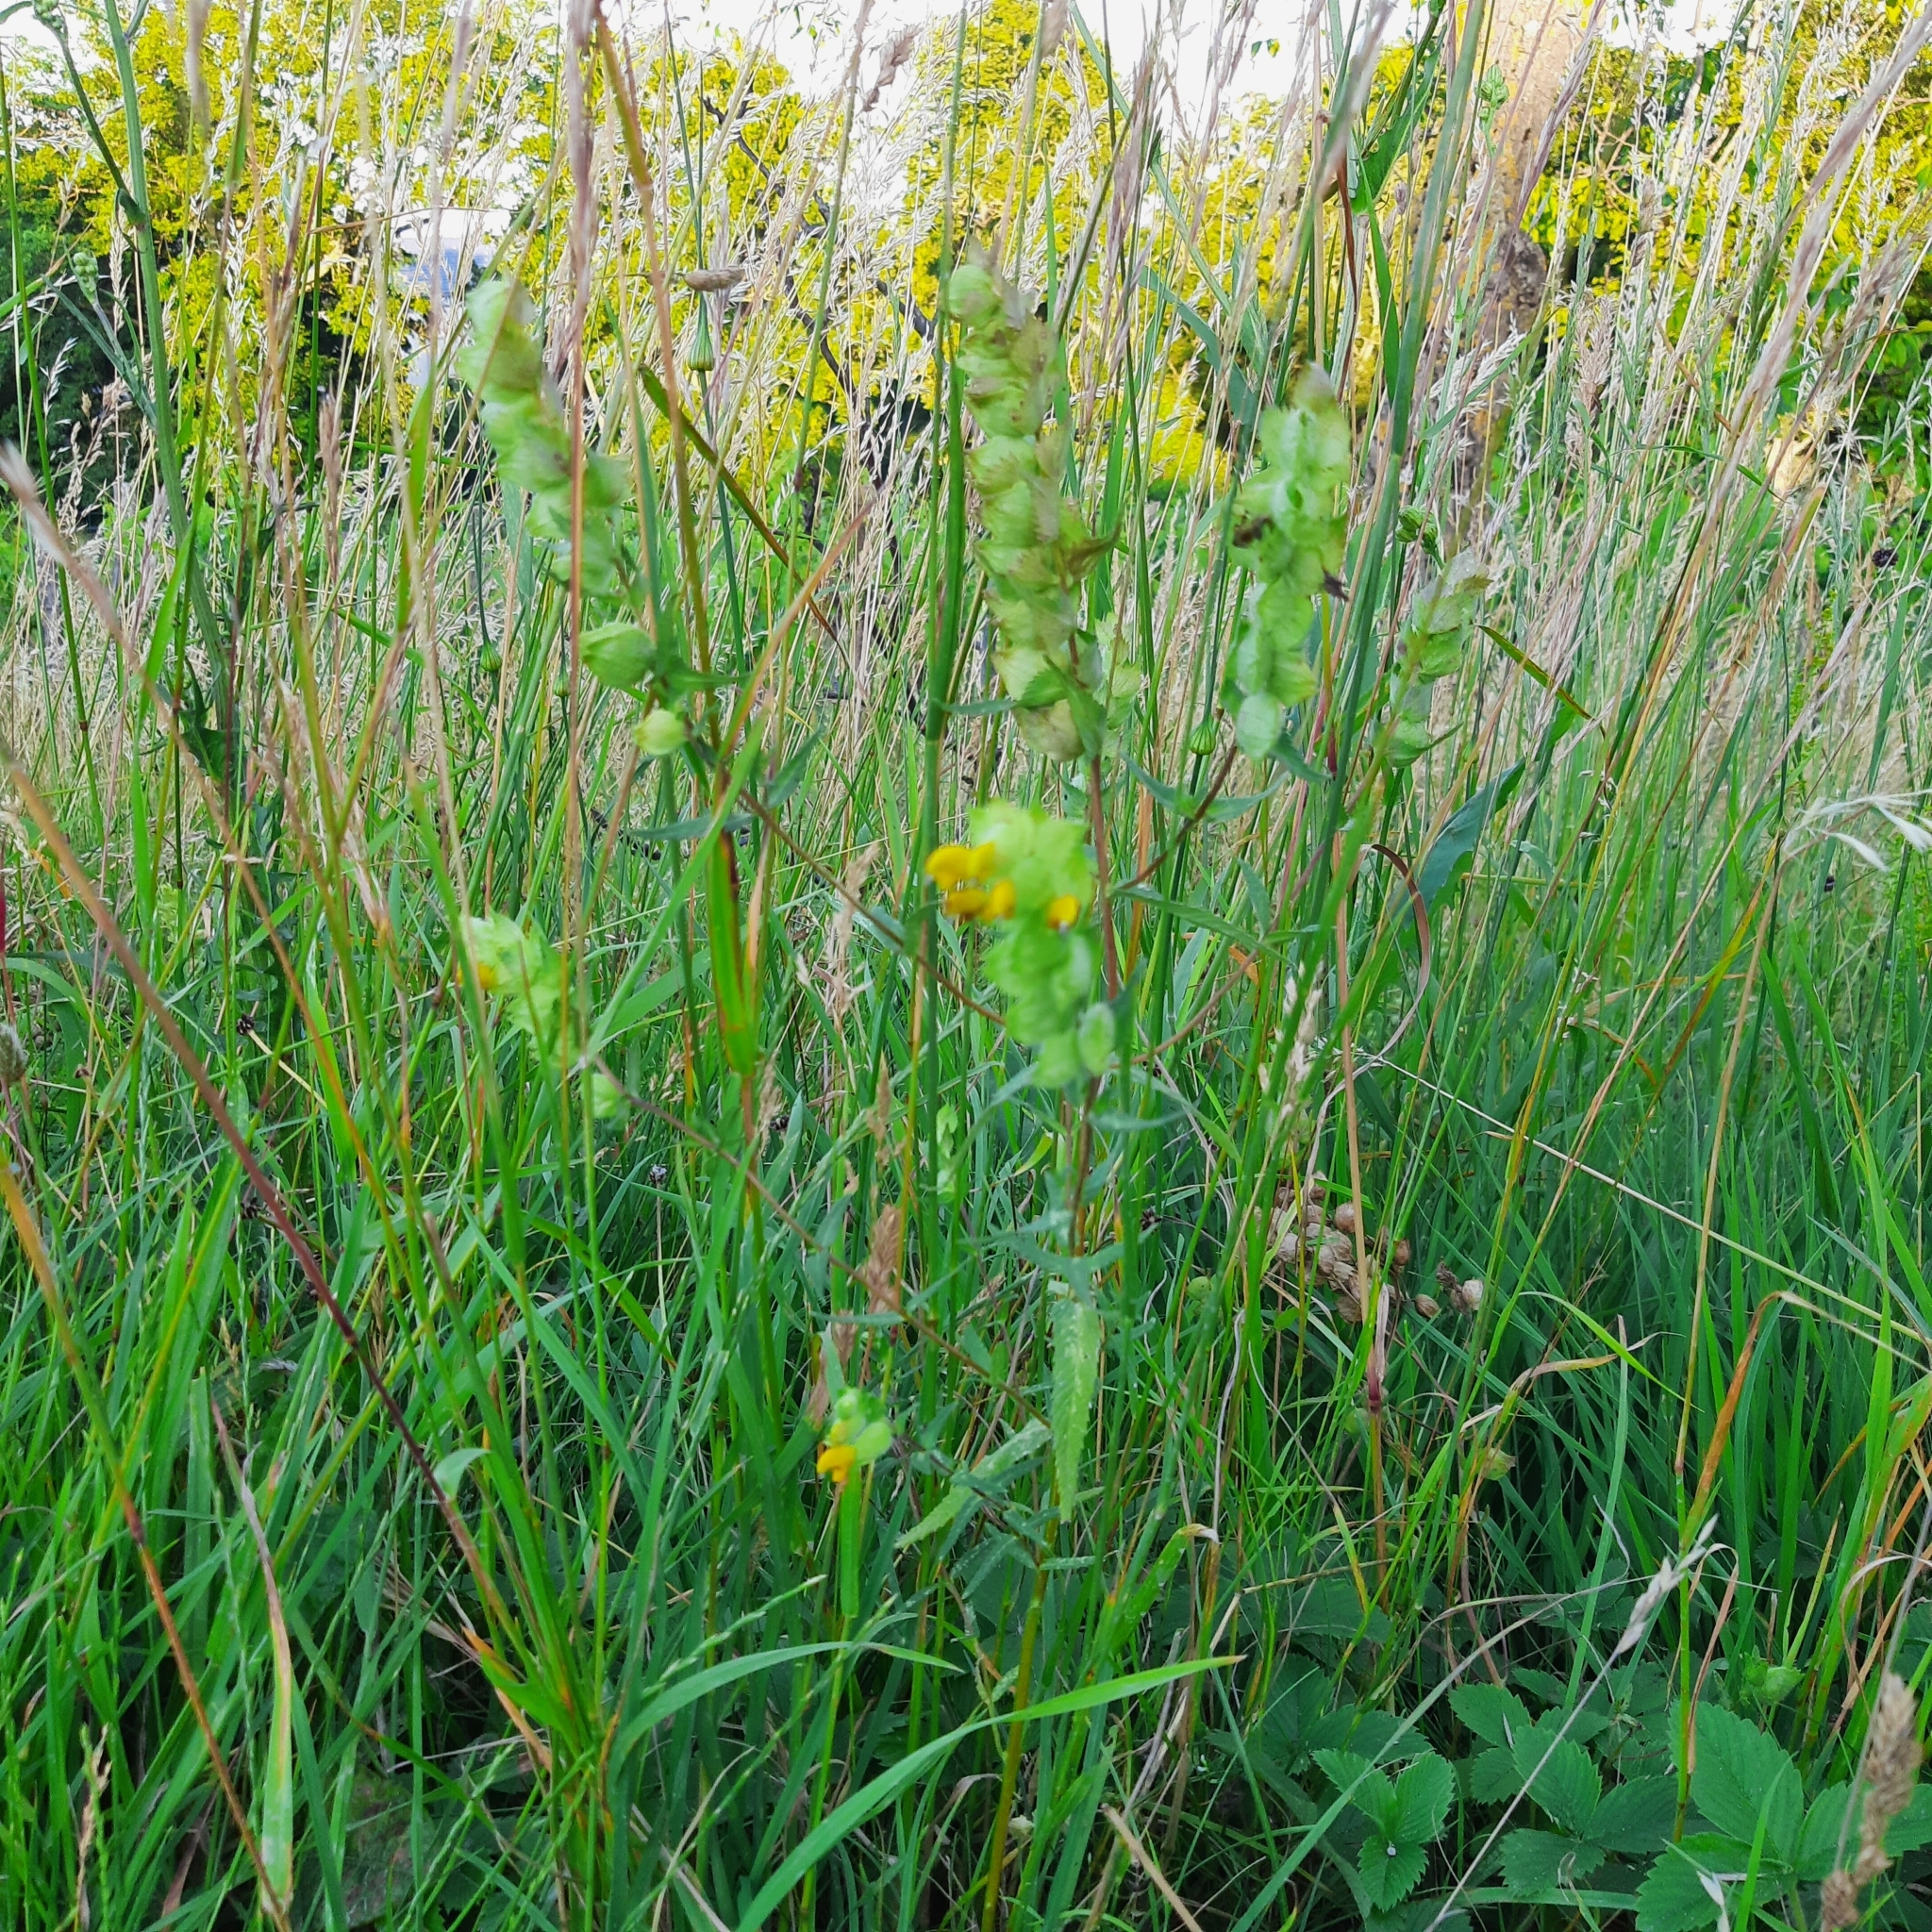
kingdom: Plantae
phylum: Tracheophyta
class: Magnoliopsida
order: Lamiales
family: Orobanchaceae
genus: Rhinanthus
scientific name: Rhinanthus minor
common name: Yellow-rattle
